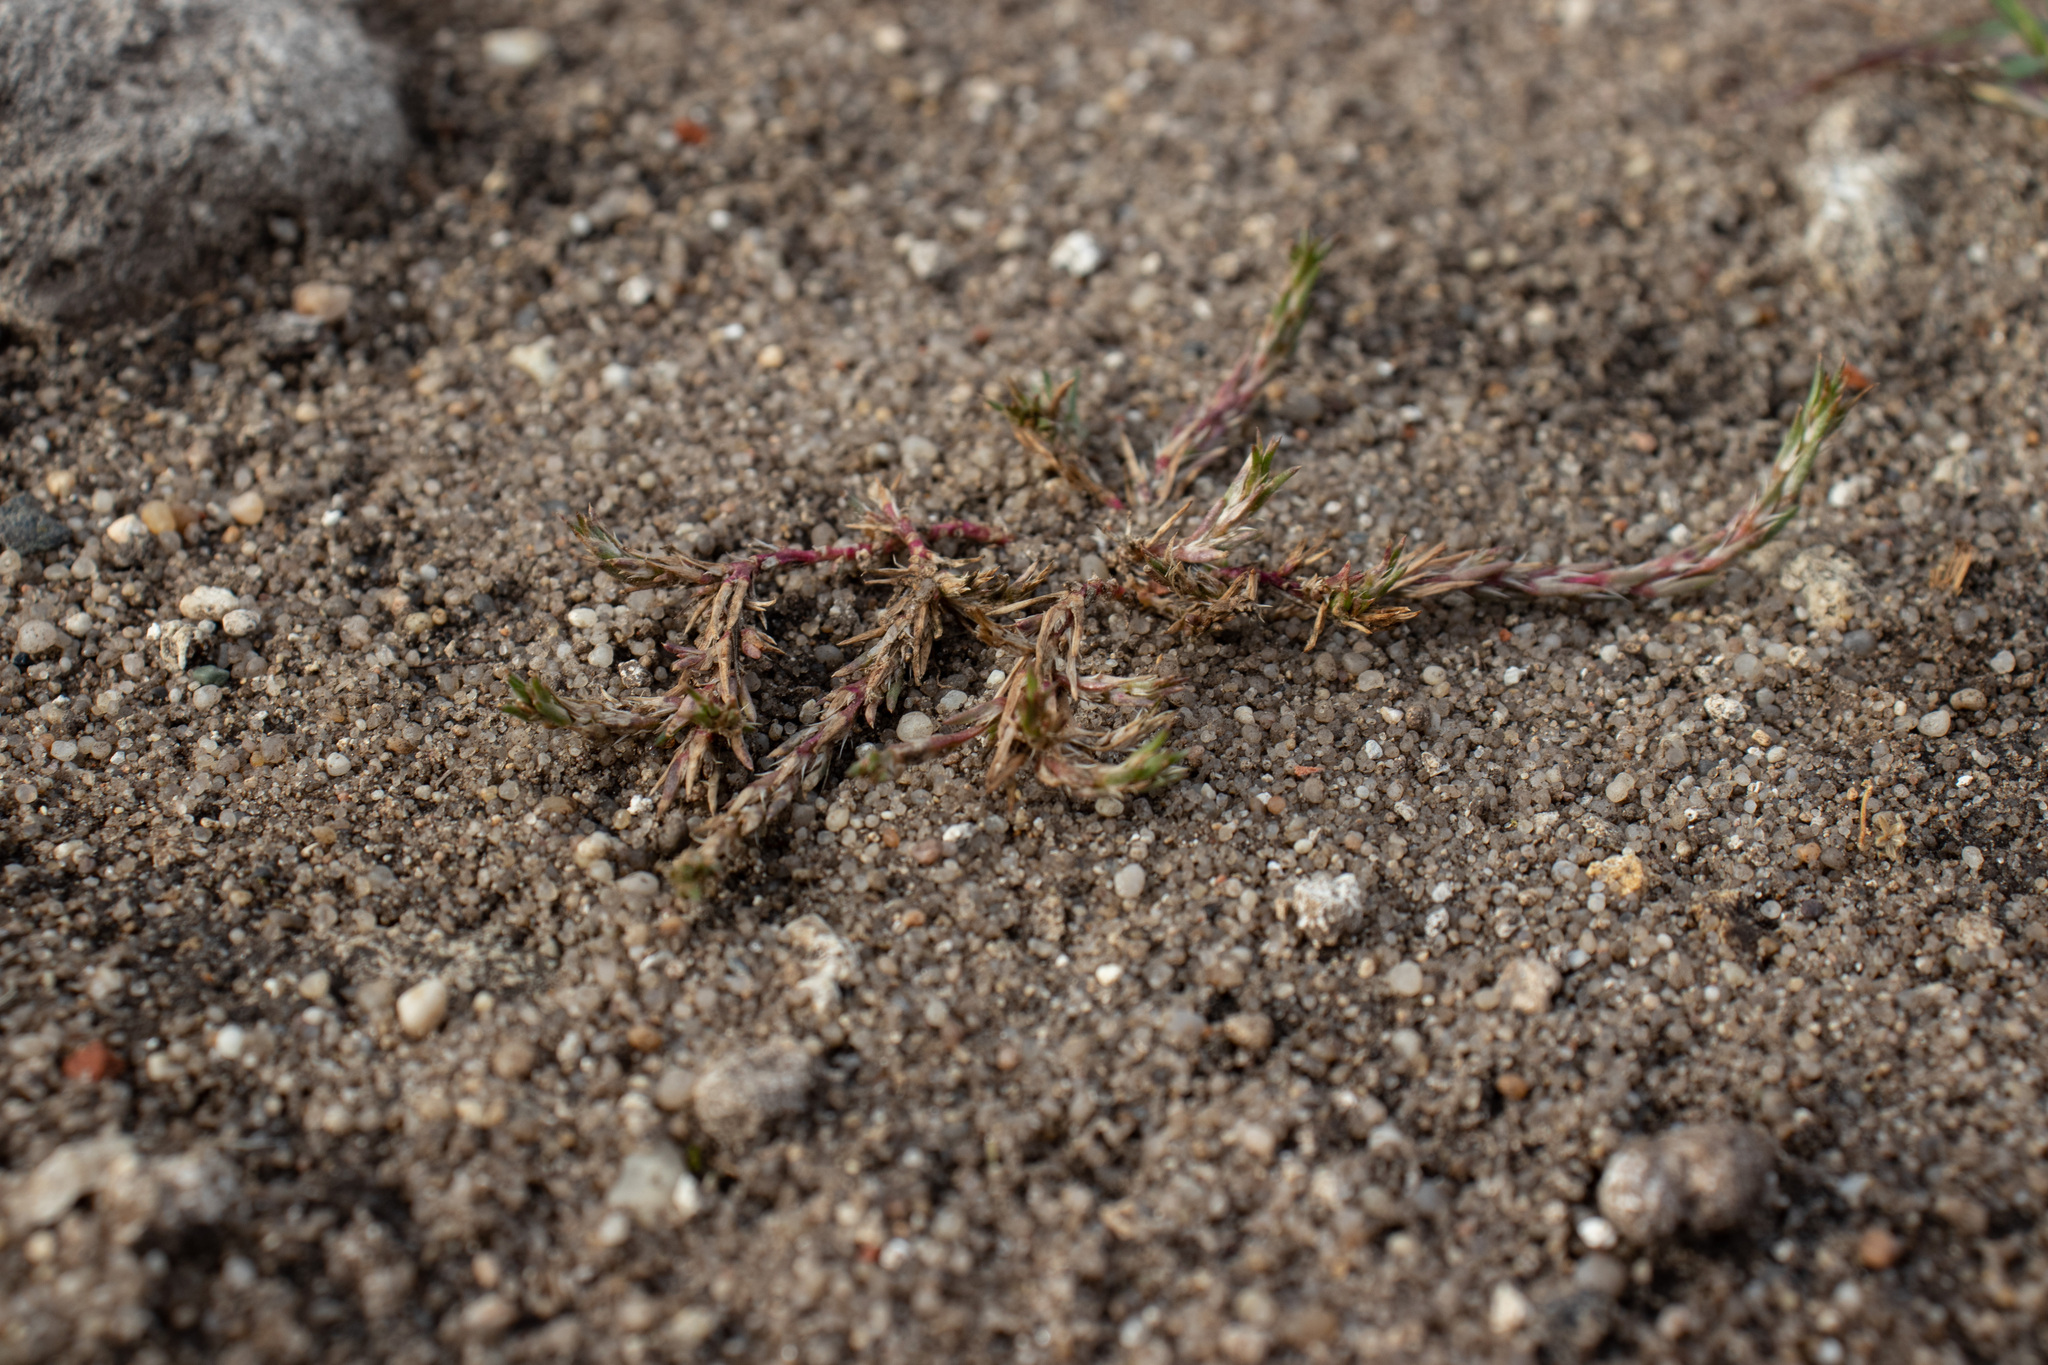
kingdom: Plantae
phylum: Tracheophyta
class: Magnoliopsida
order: Caryophyllales
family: Amaranthaceae
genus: Polycnemum
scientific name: Polycnemum majus
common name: Giant needleleaf
